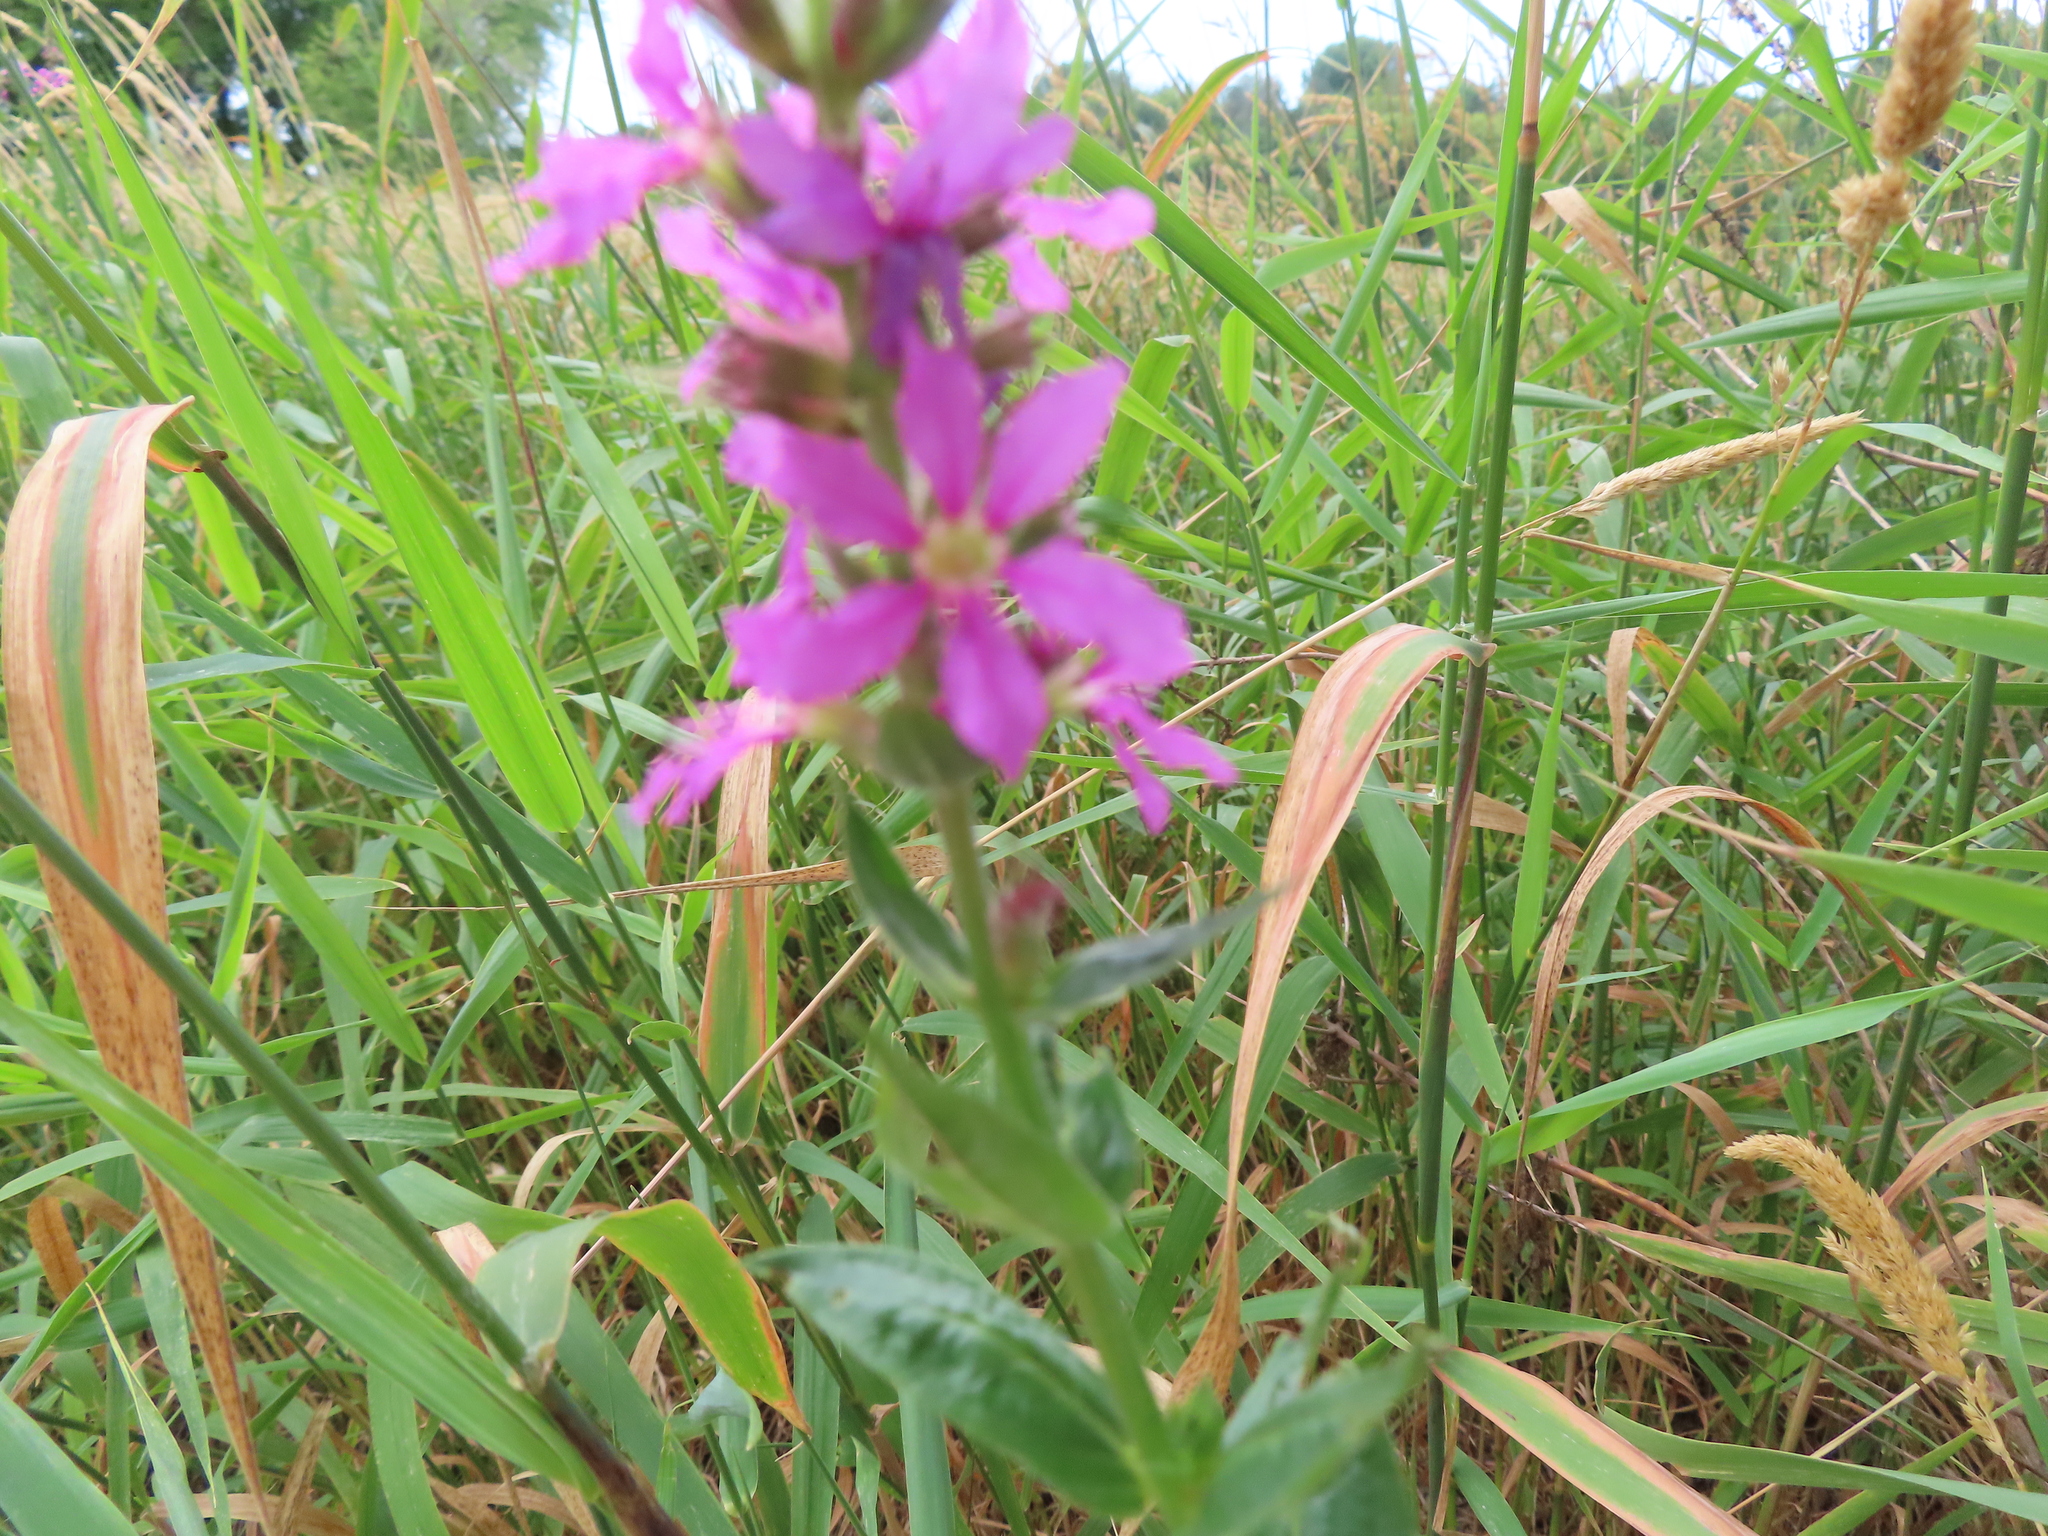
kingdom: Plantae
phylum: Tracheophyta
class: Magnoliopsida
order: Myrtales
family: Lythraceae
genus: Lythrum
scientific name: Lythrum salicaria
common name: Purple loosestrife
